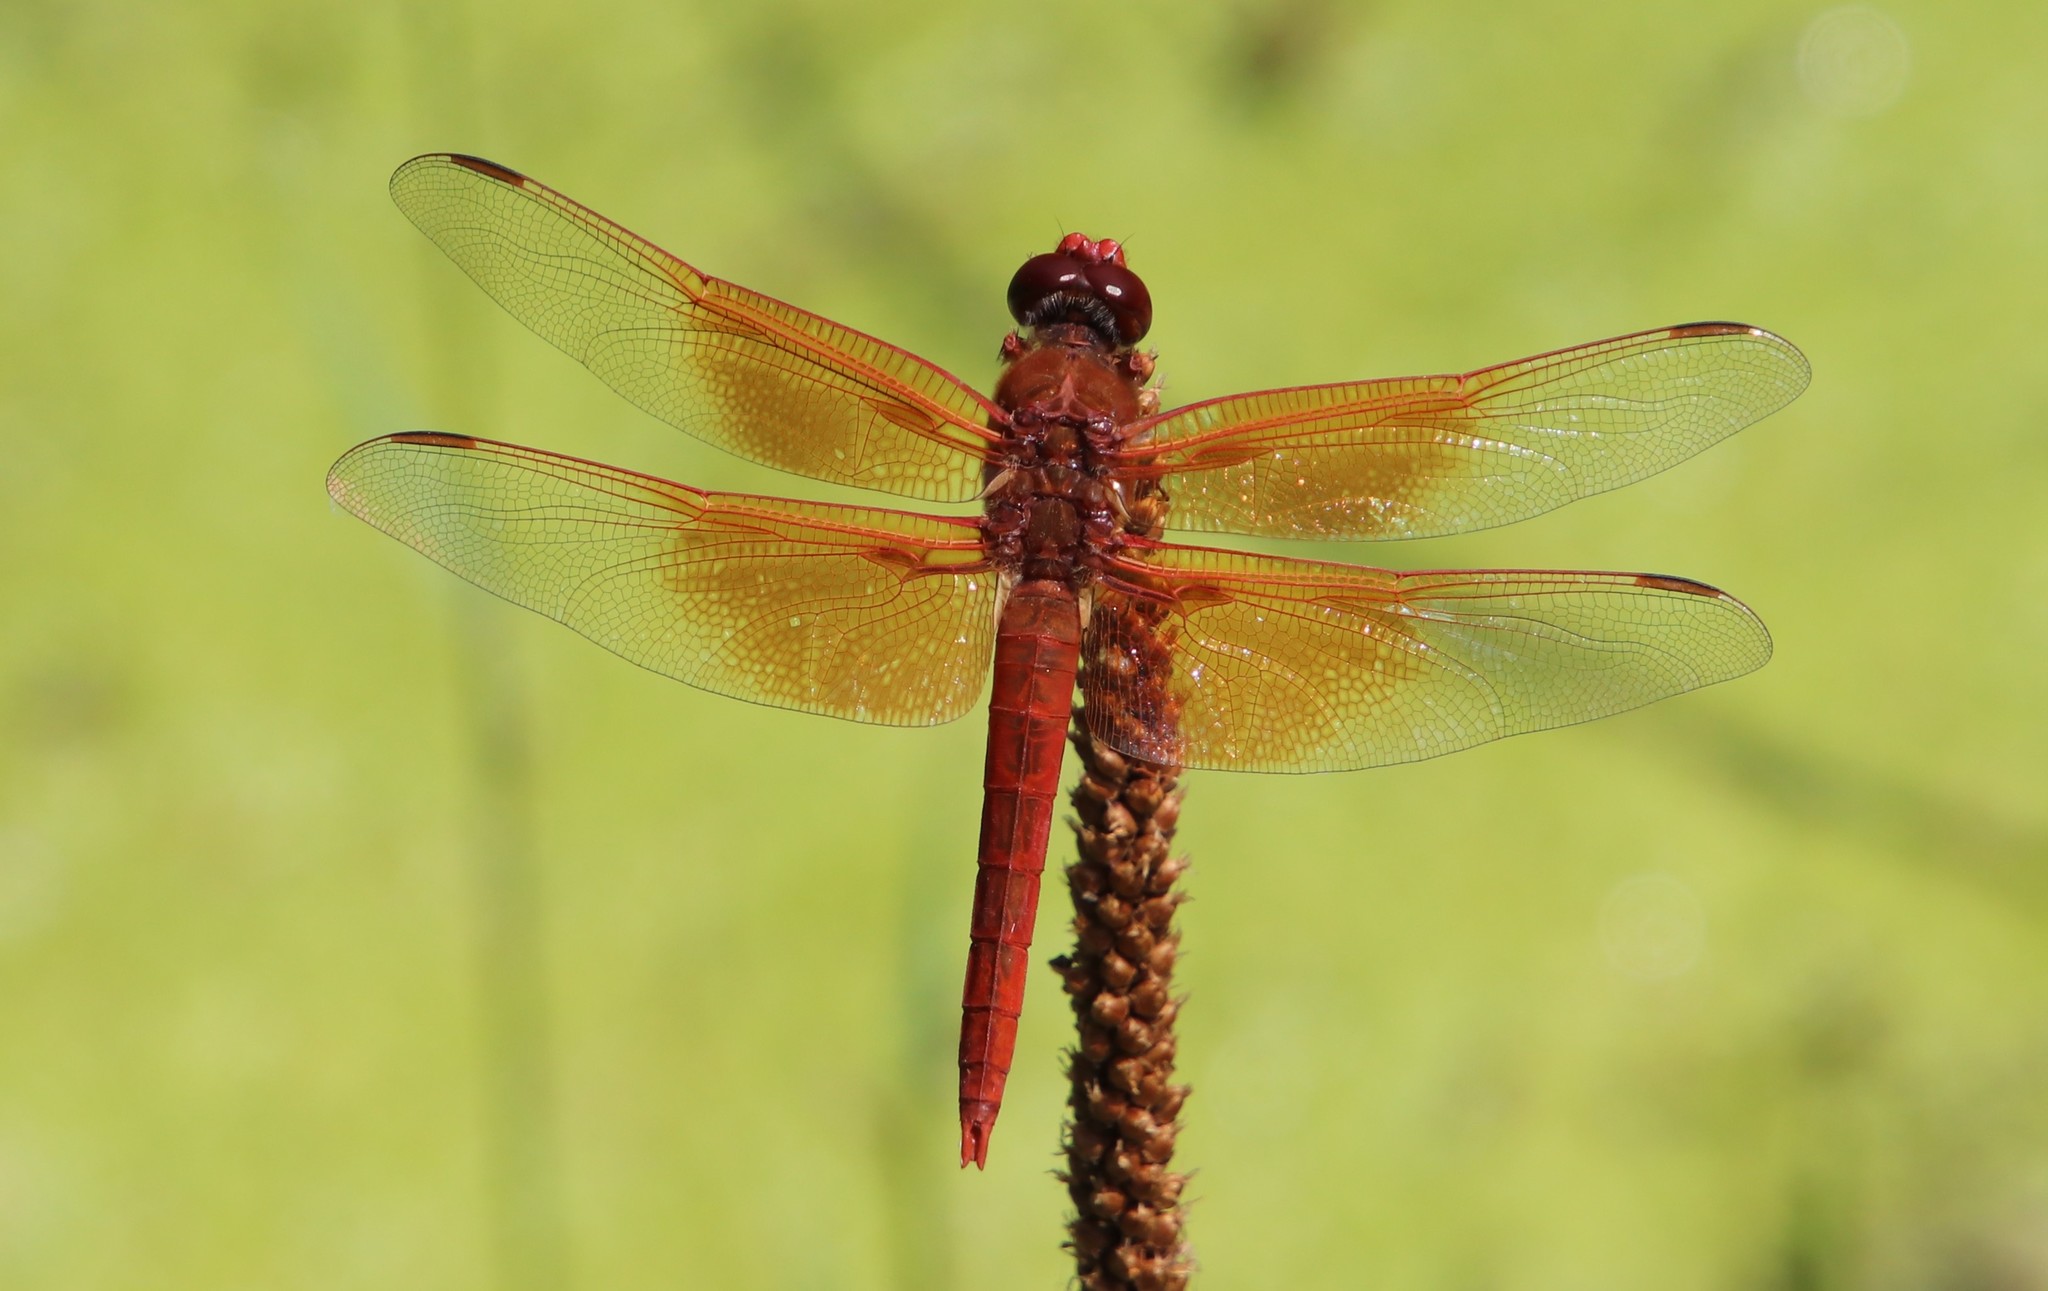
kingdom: Animalia
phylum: Arthropoda
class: Insecta
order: Odonata
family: Libellulidae
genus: Libellula
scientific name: Libellula saturata
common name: Flame skimmer
